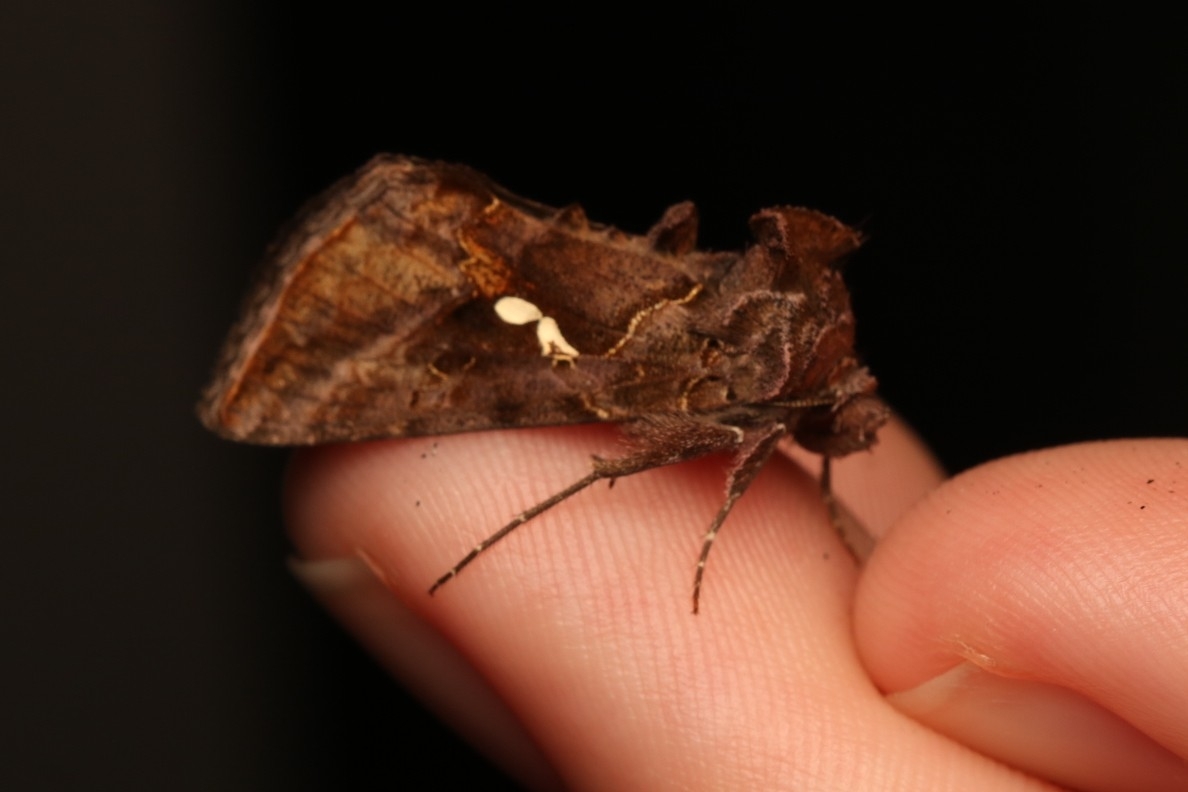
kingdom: Animalia
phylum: Arthropoda
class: Insecta
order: Lepidoptera
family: Noctuidae
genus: Autographa
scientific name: Autographa precationis
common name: Common looper moth
